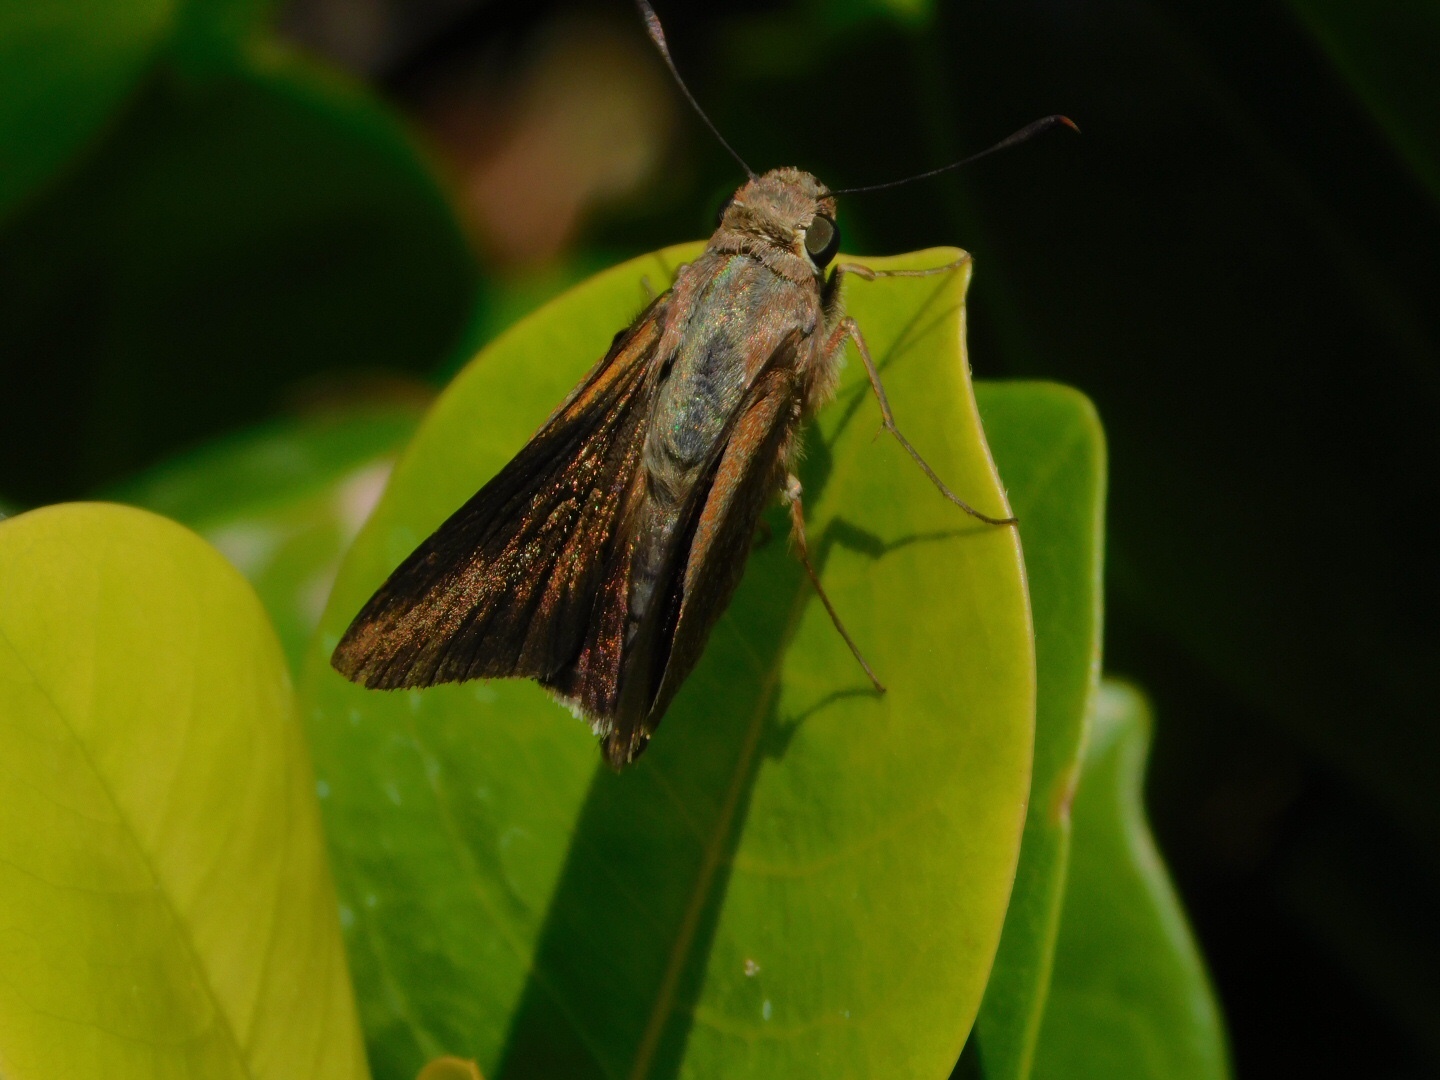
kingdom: Animalia
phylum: Arthropoda
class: Insecta
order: Lepidoptera
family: Hesperiidae
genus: Asbolis
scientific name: Asbolis capucinus
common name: Monk skipper
